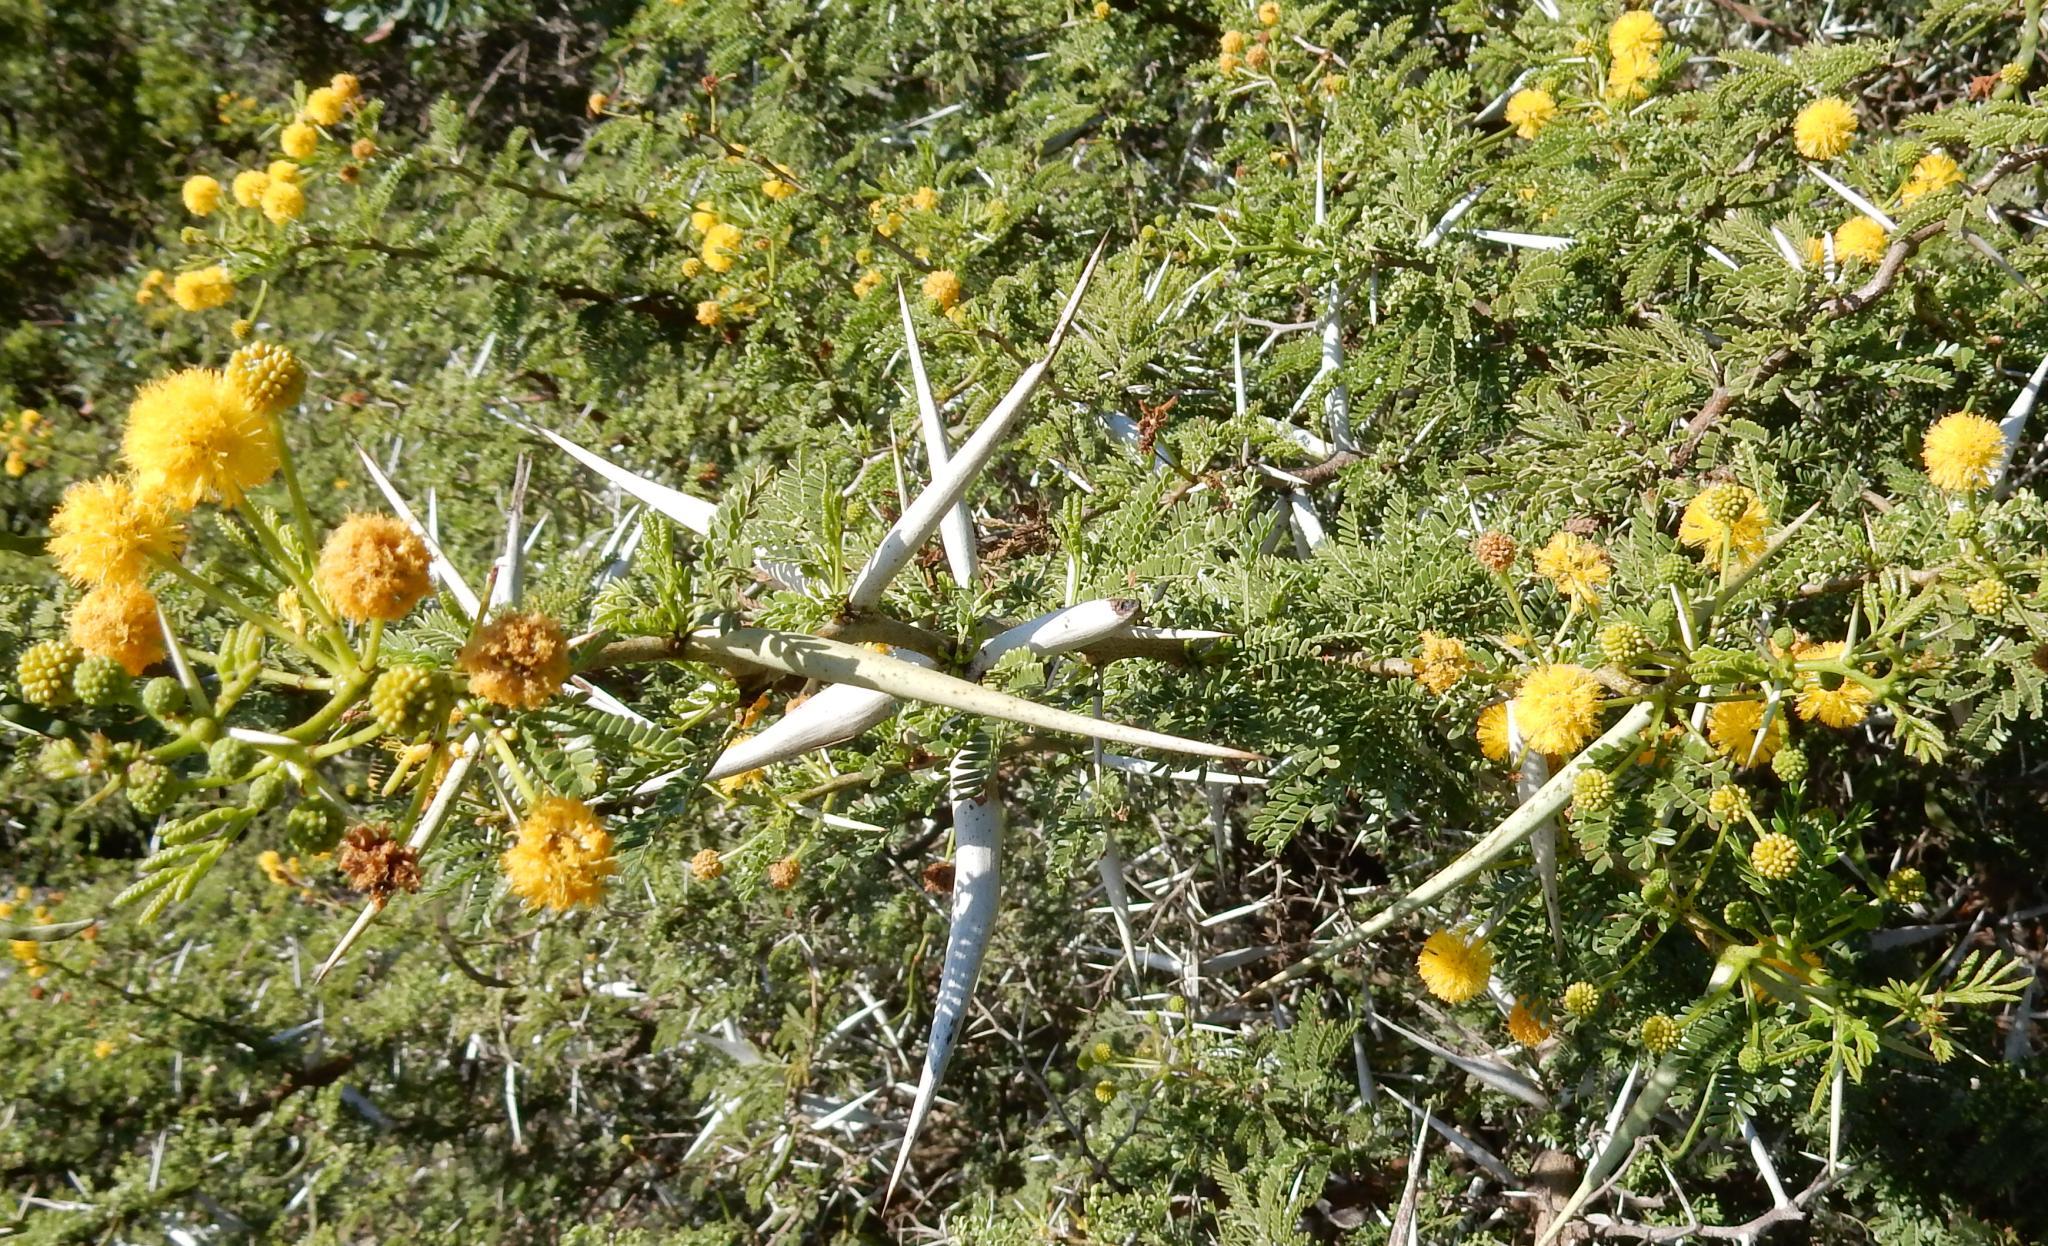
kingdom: Plantae
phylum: Tracheophyta
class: Magnoliopsida
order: Fabales
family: Fabaceae
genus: Vachellia
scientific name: Vachellia karroo
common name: Sweet thorn
